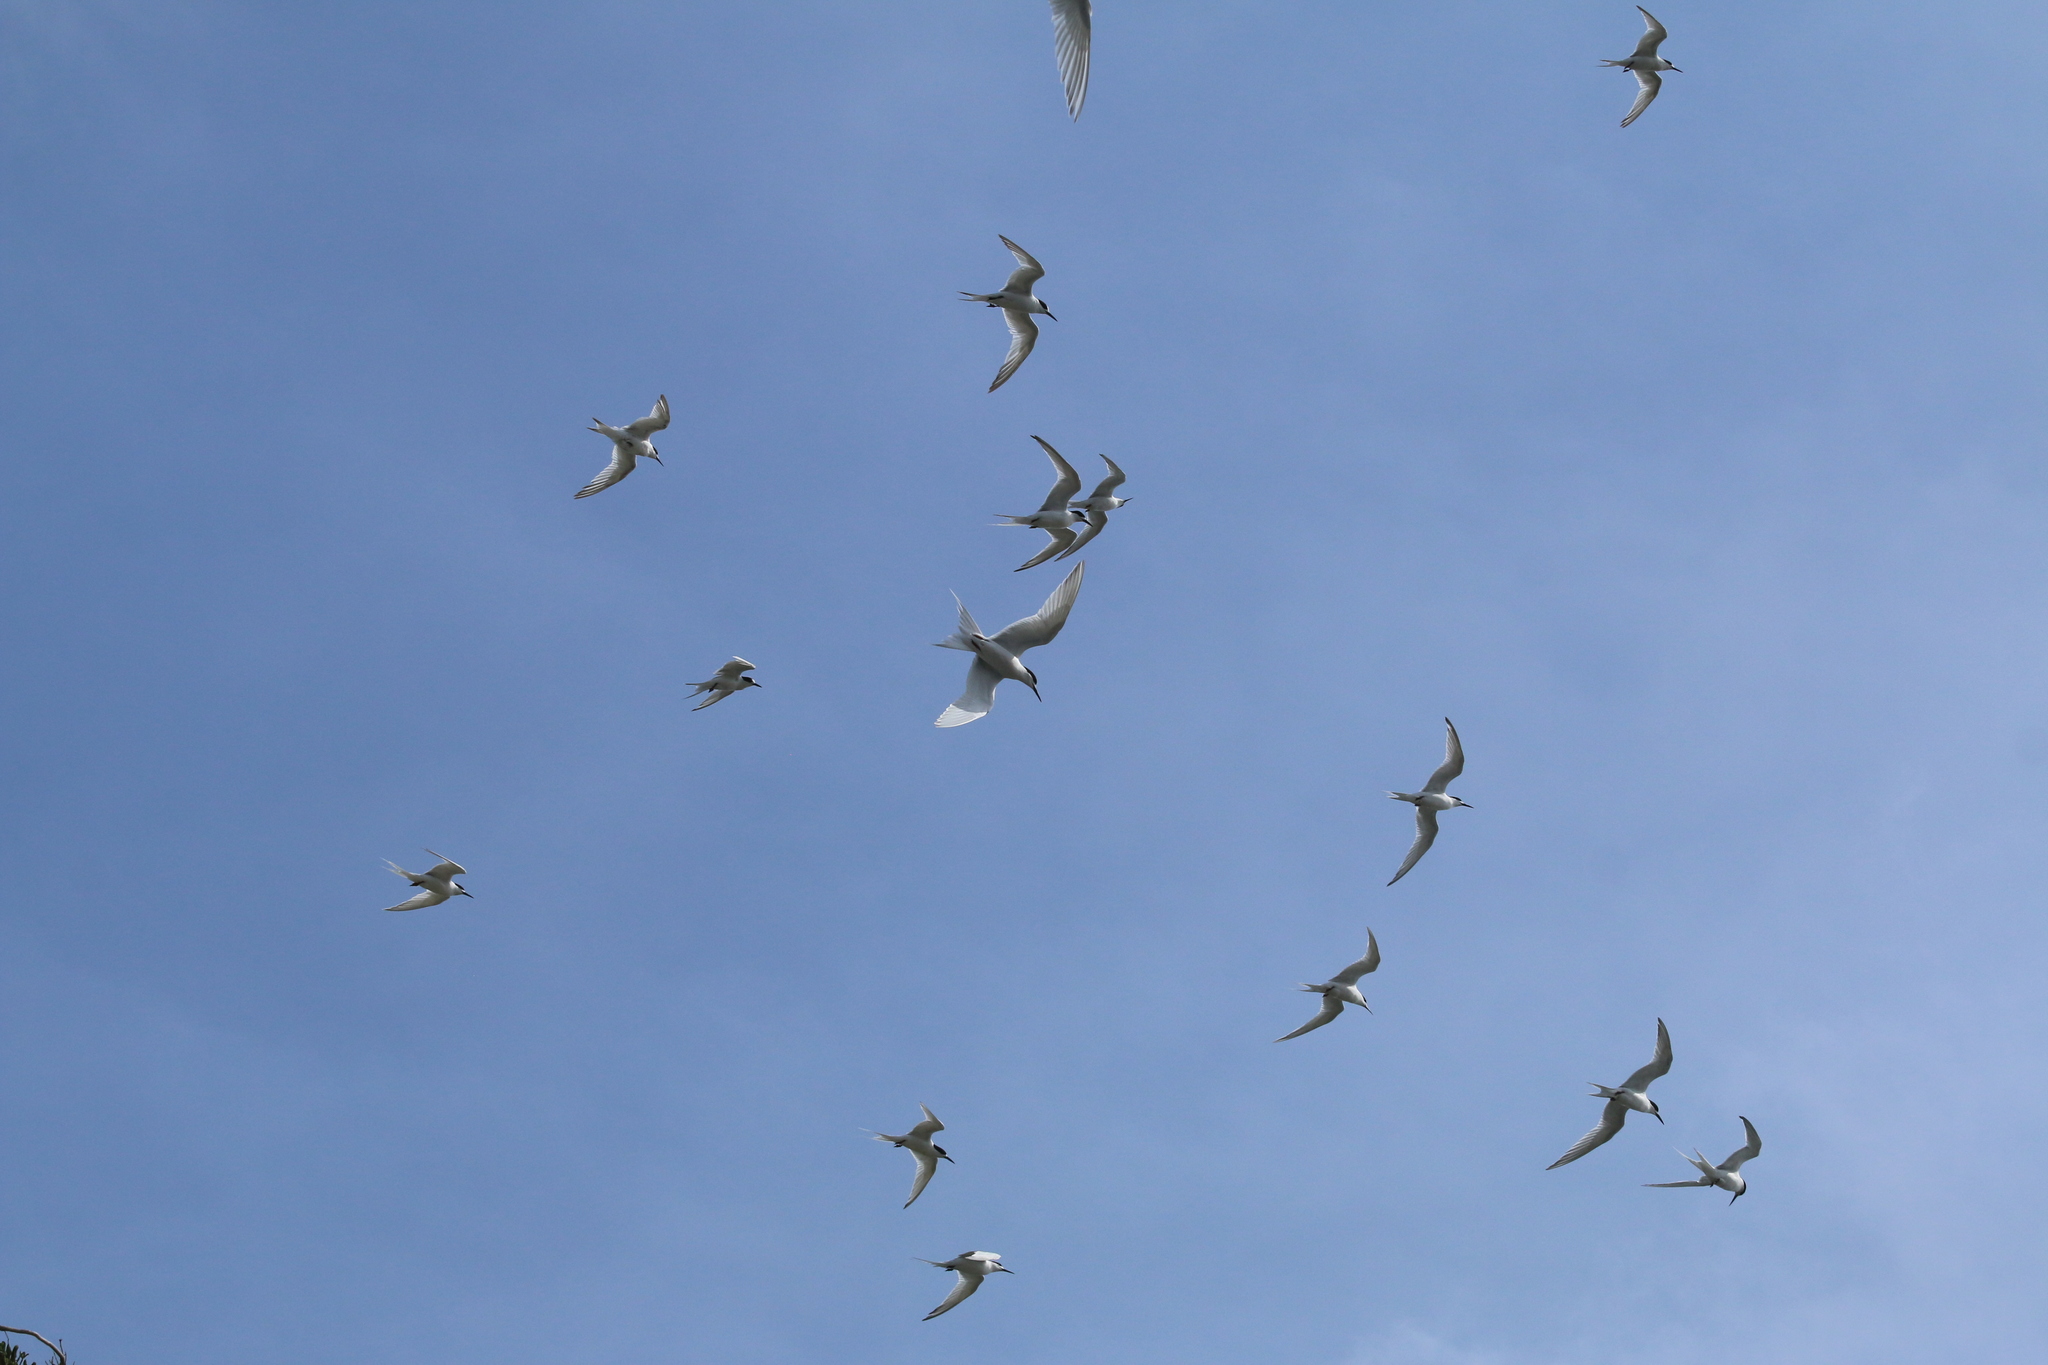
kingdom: Animalia
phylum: Chordata
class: Aves
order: Charadriiformes
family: Laridae
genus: Sterna
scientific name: Sterna striata
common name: White-fronted tern
